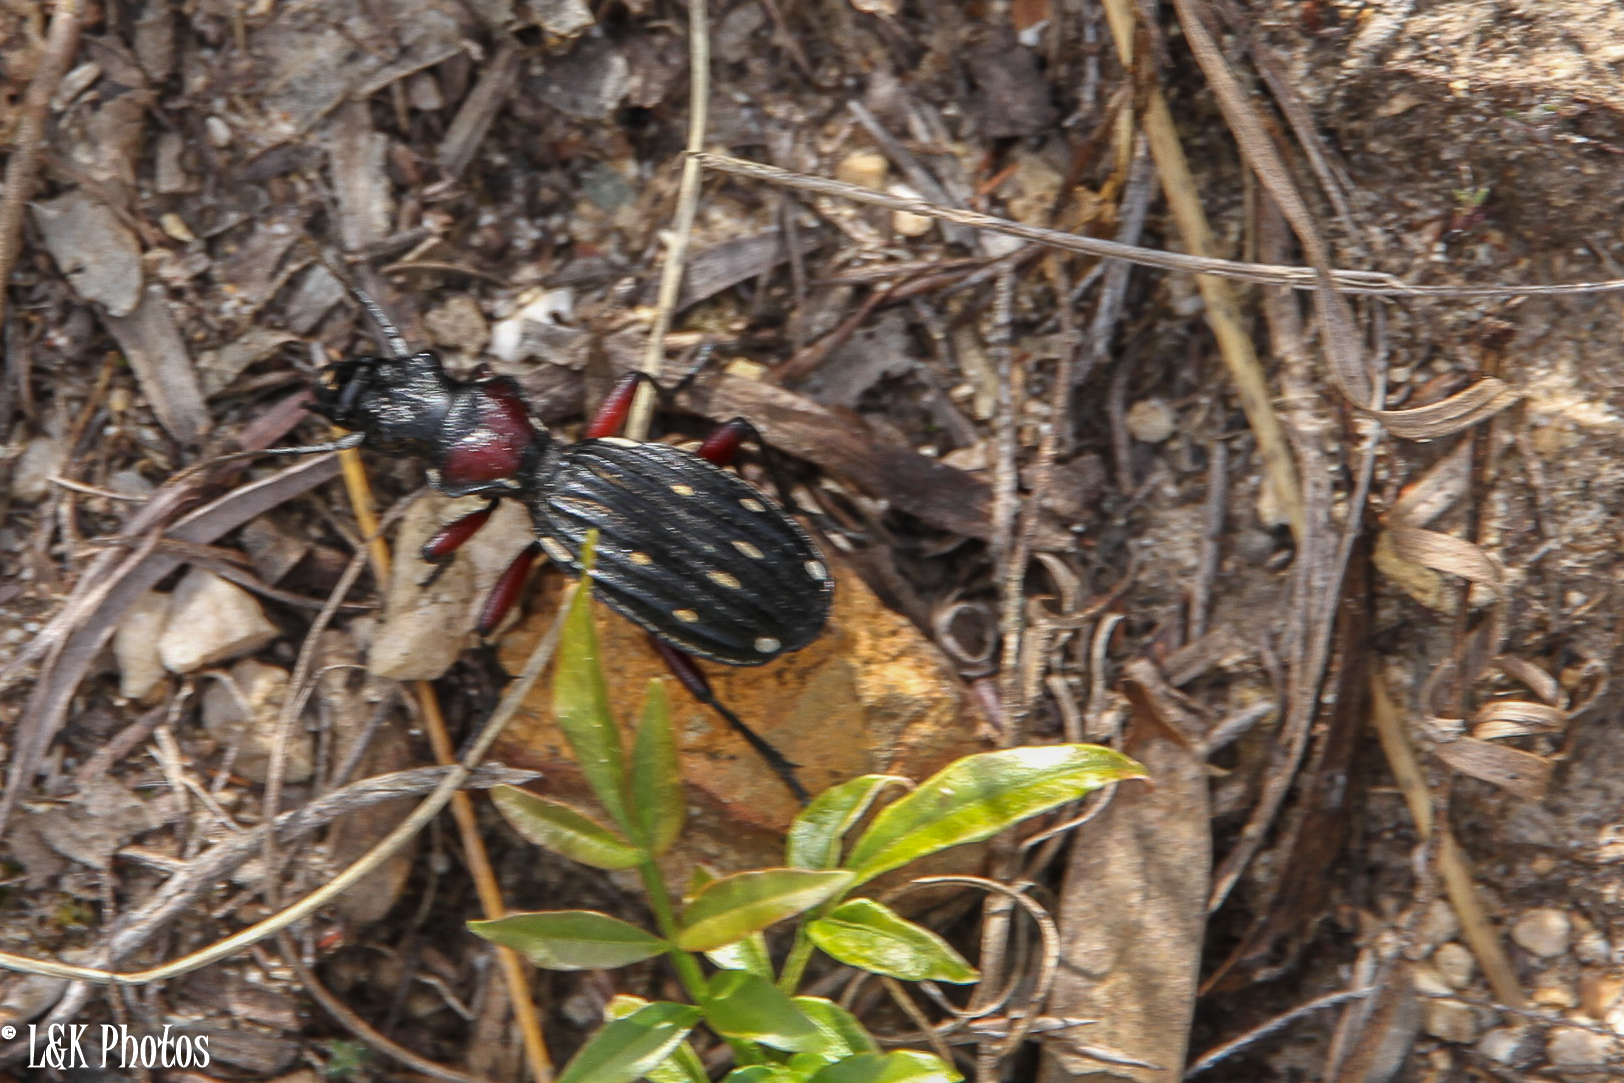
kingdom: Animalia
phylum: Arthropoda
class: Insecta
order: Coleoptera
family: Carabidae
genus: Anthia
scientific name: Anthia decemguttata
